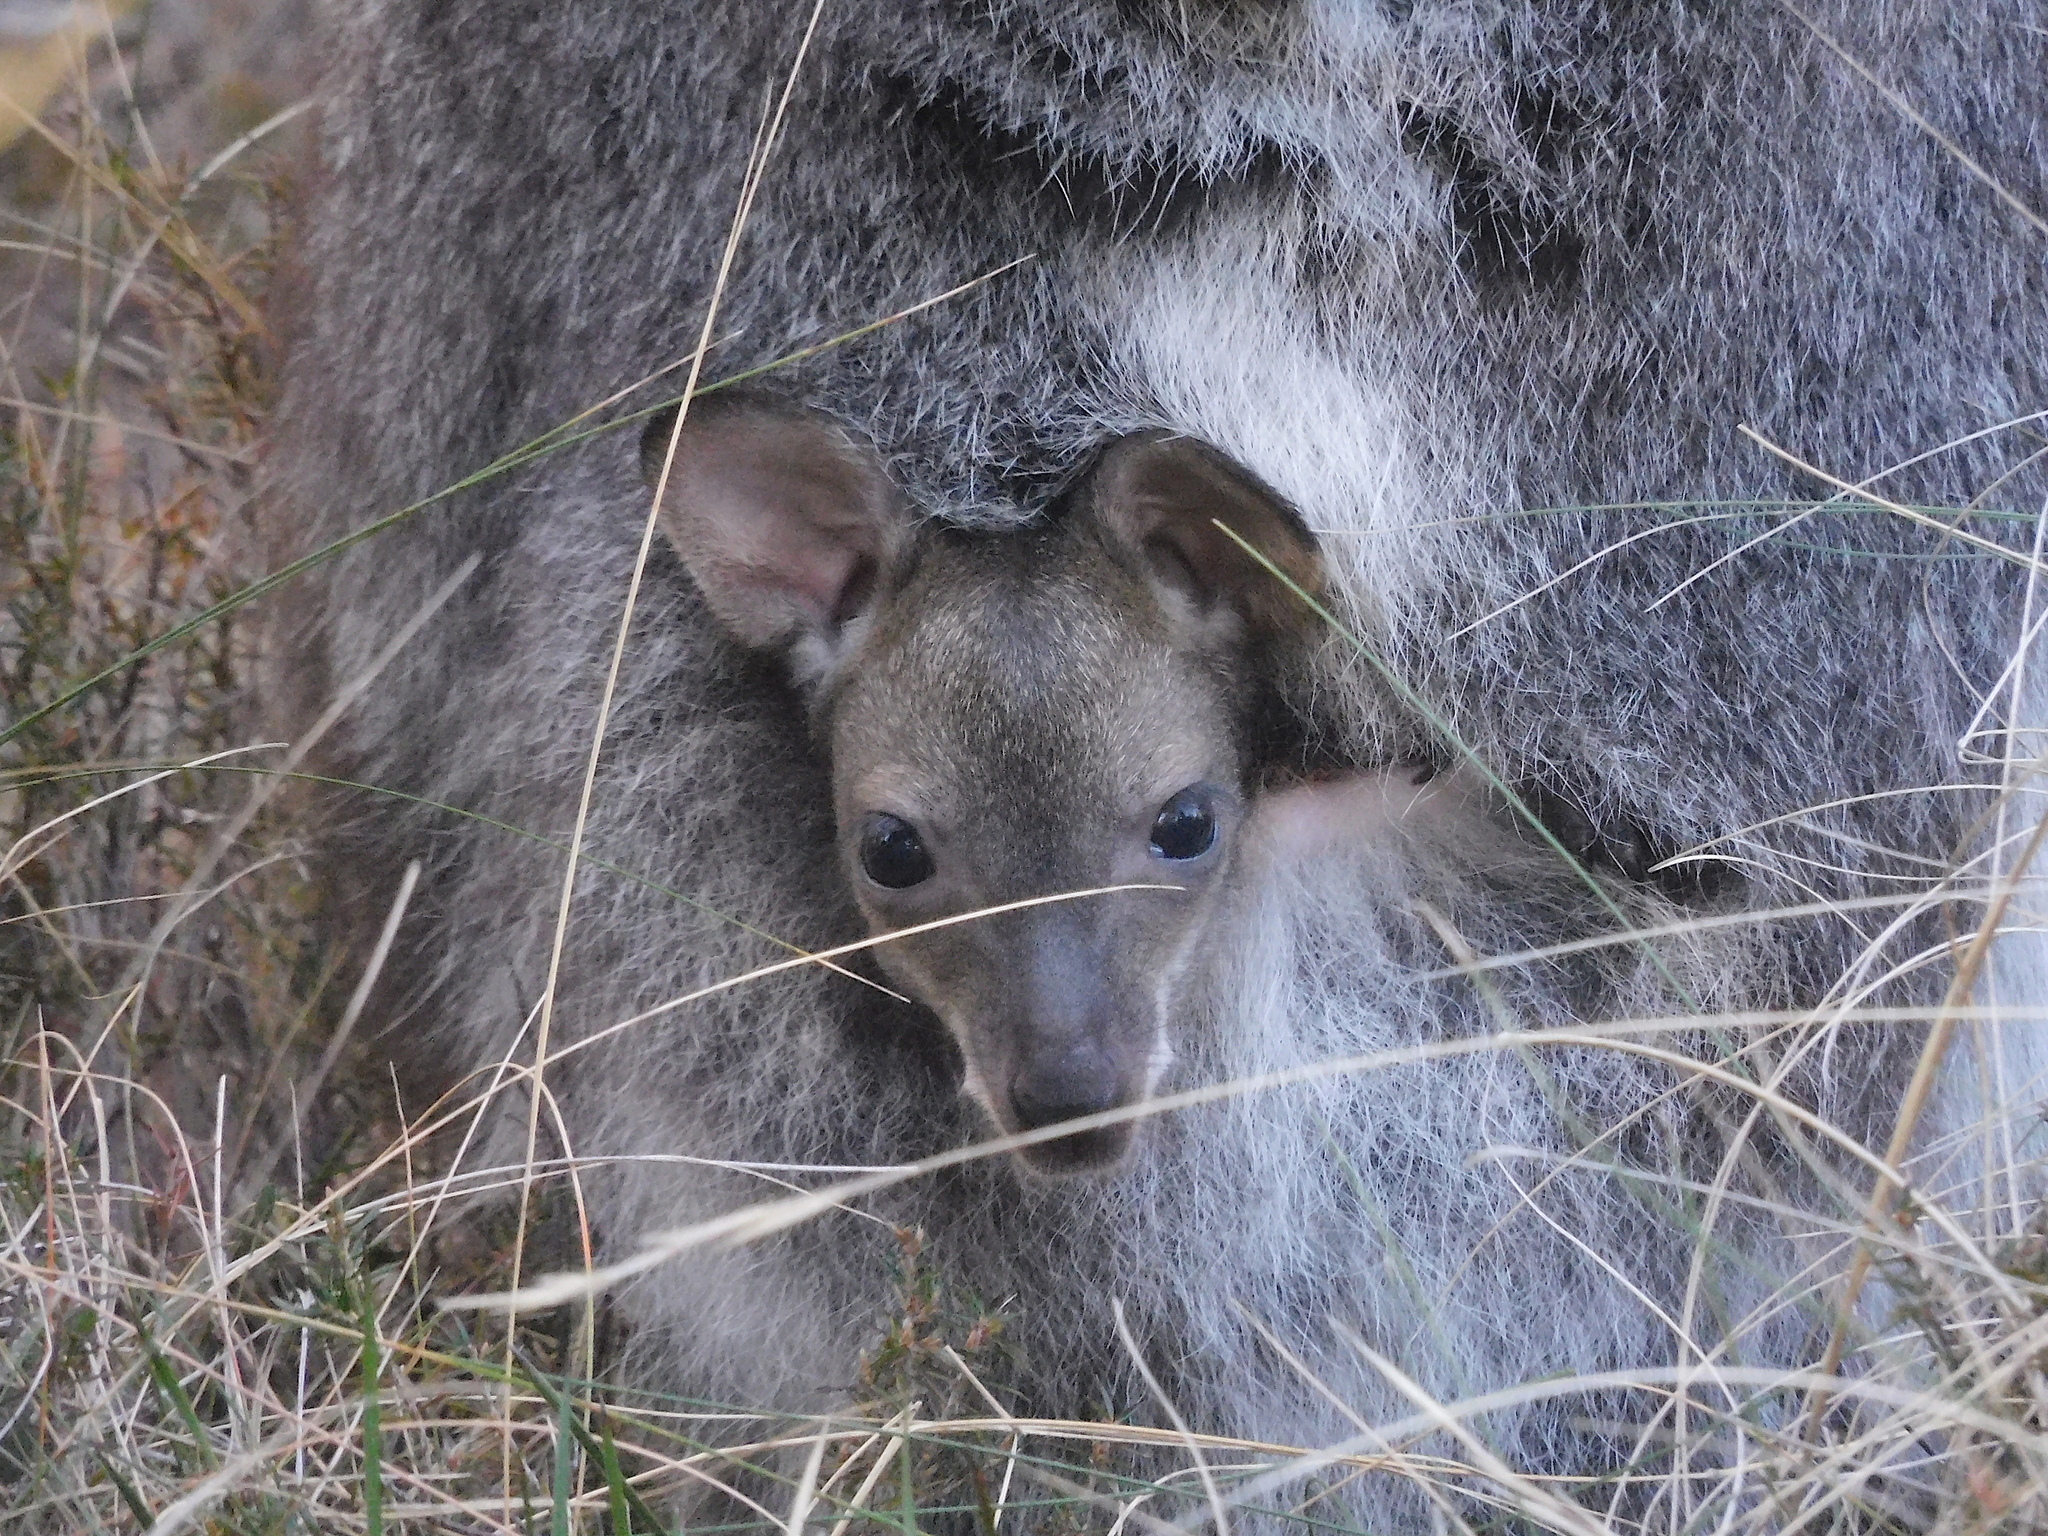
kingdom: Animalia
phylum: Chordata
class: Mammalia
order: Diprotodontia
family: Macropodidae
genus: Notamacropus
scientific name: Notamacropus rufogriseus
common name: Red-necked wallaby
